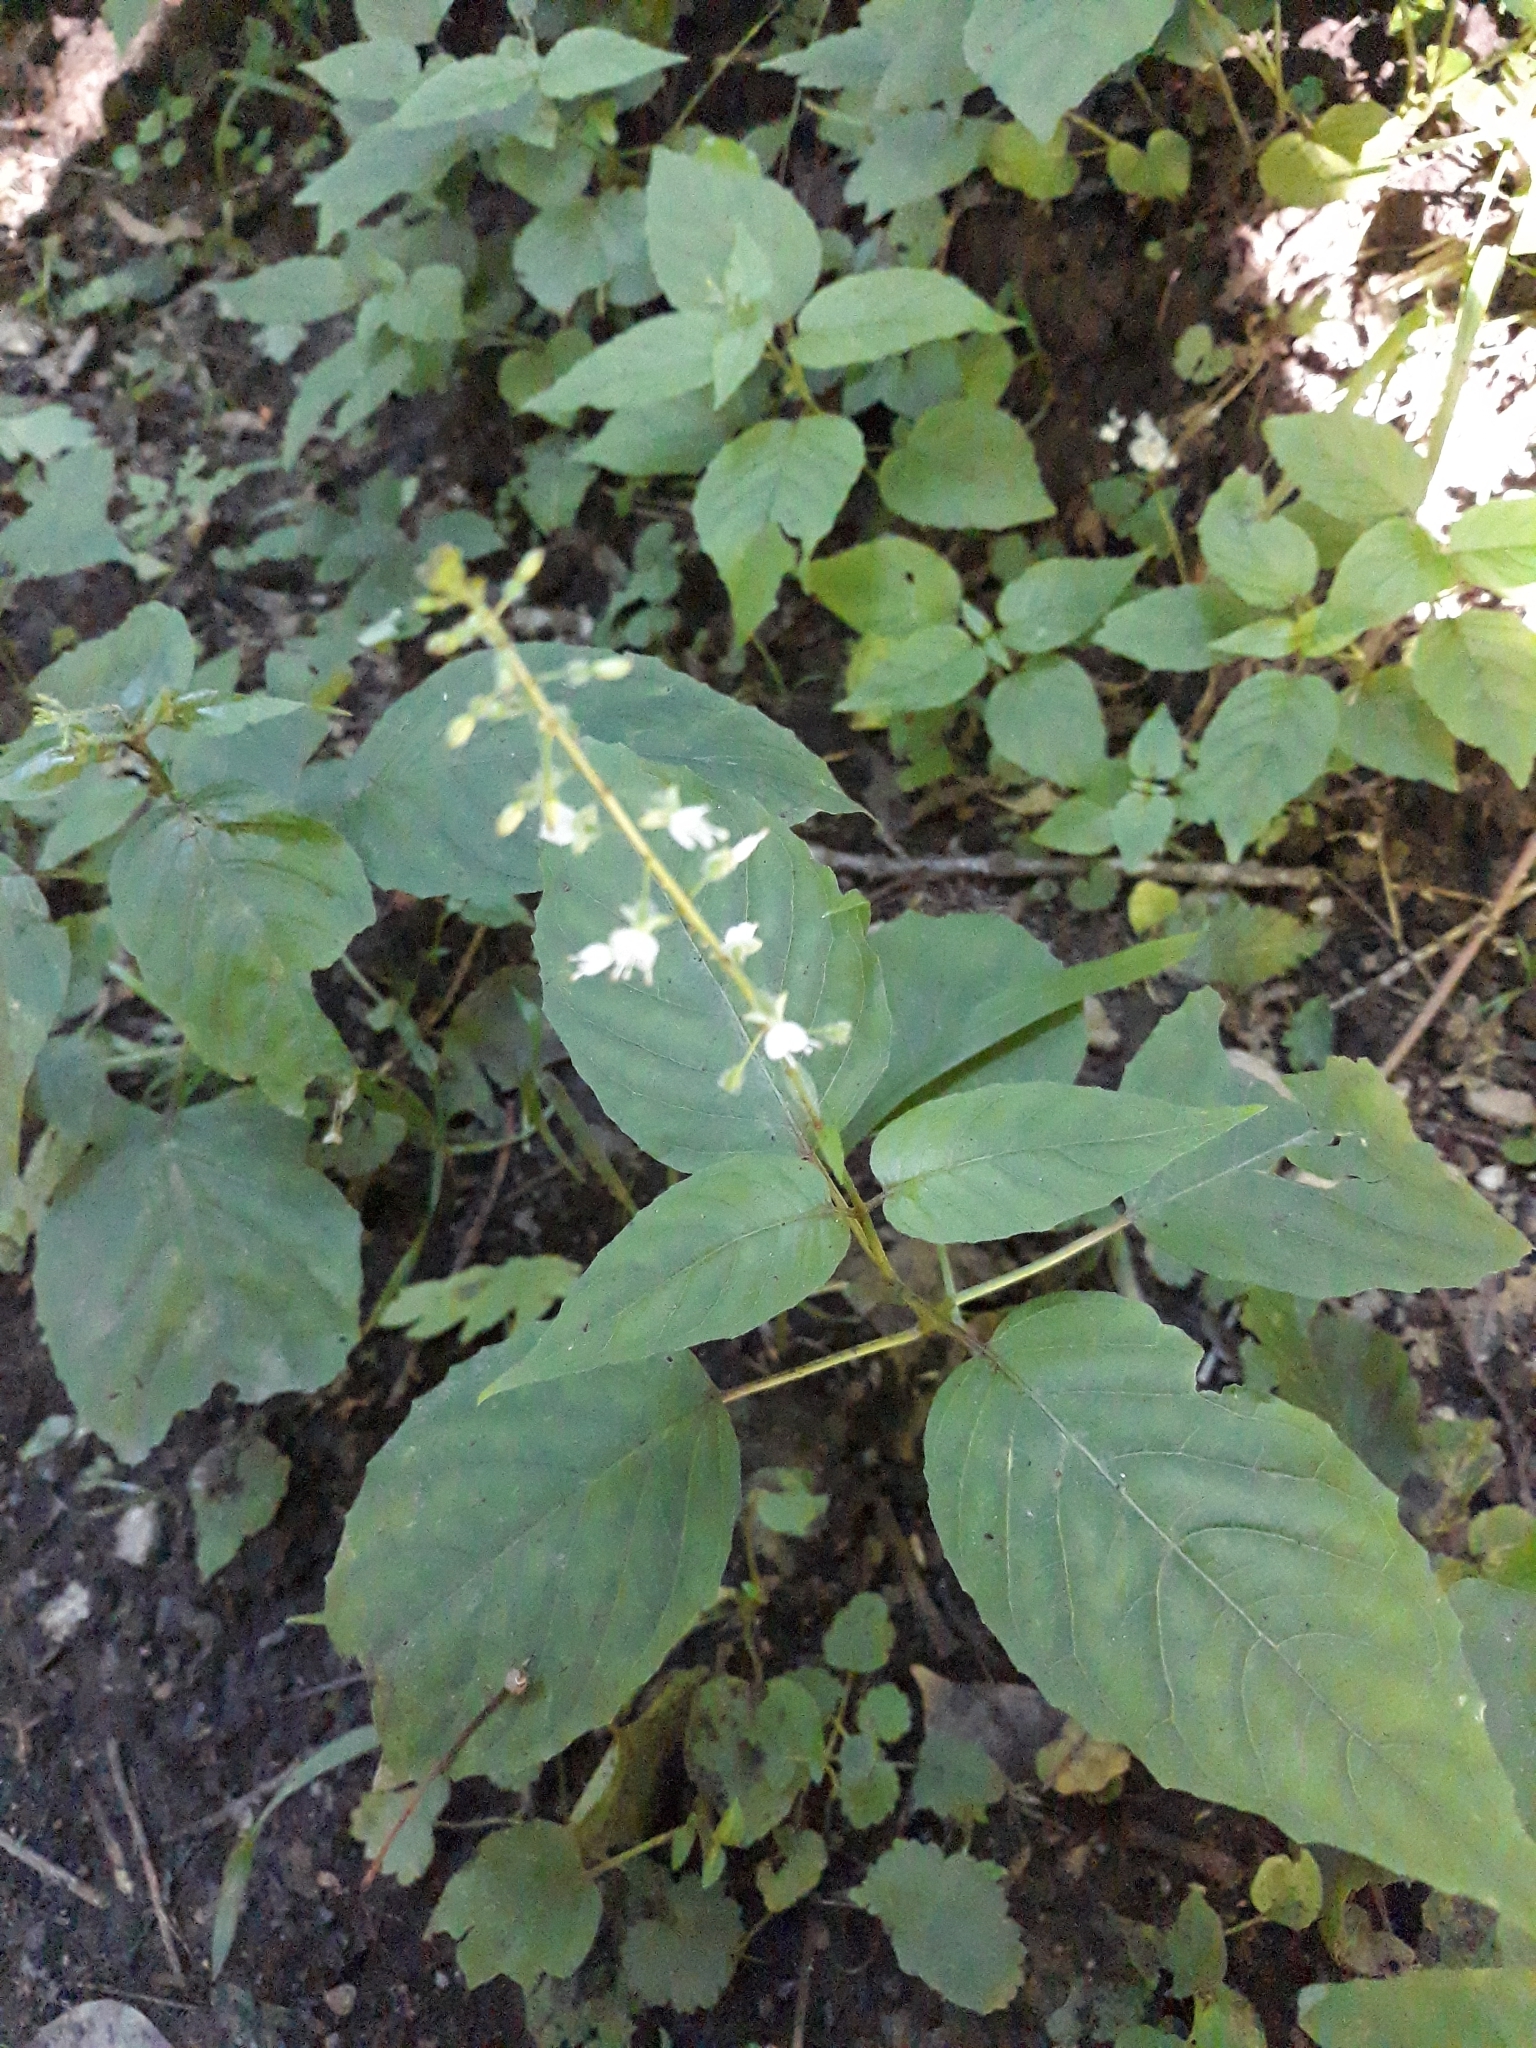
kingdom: Plantae
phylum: Tracheophyta
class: Magnoliopsida
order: Myrtales
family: Onagraceae
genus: Circaea
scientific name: Circaea lutetiana
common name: Enchanter's-nightshade
